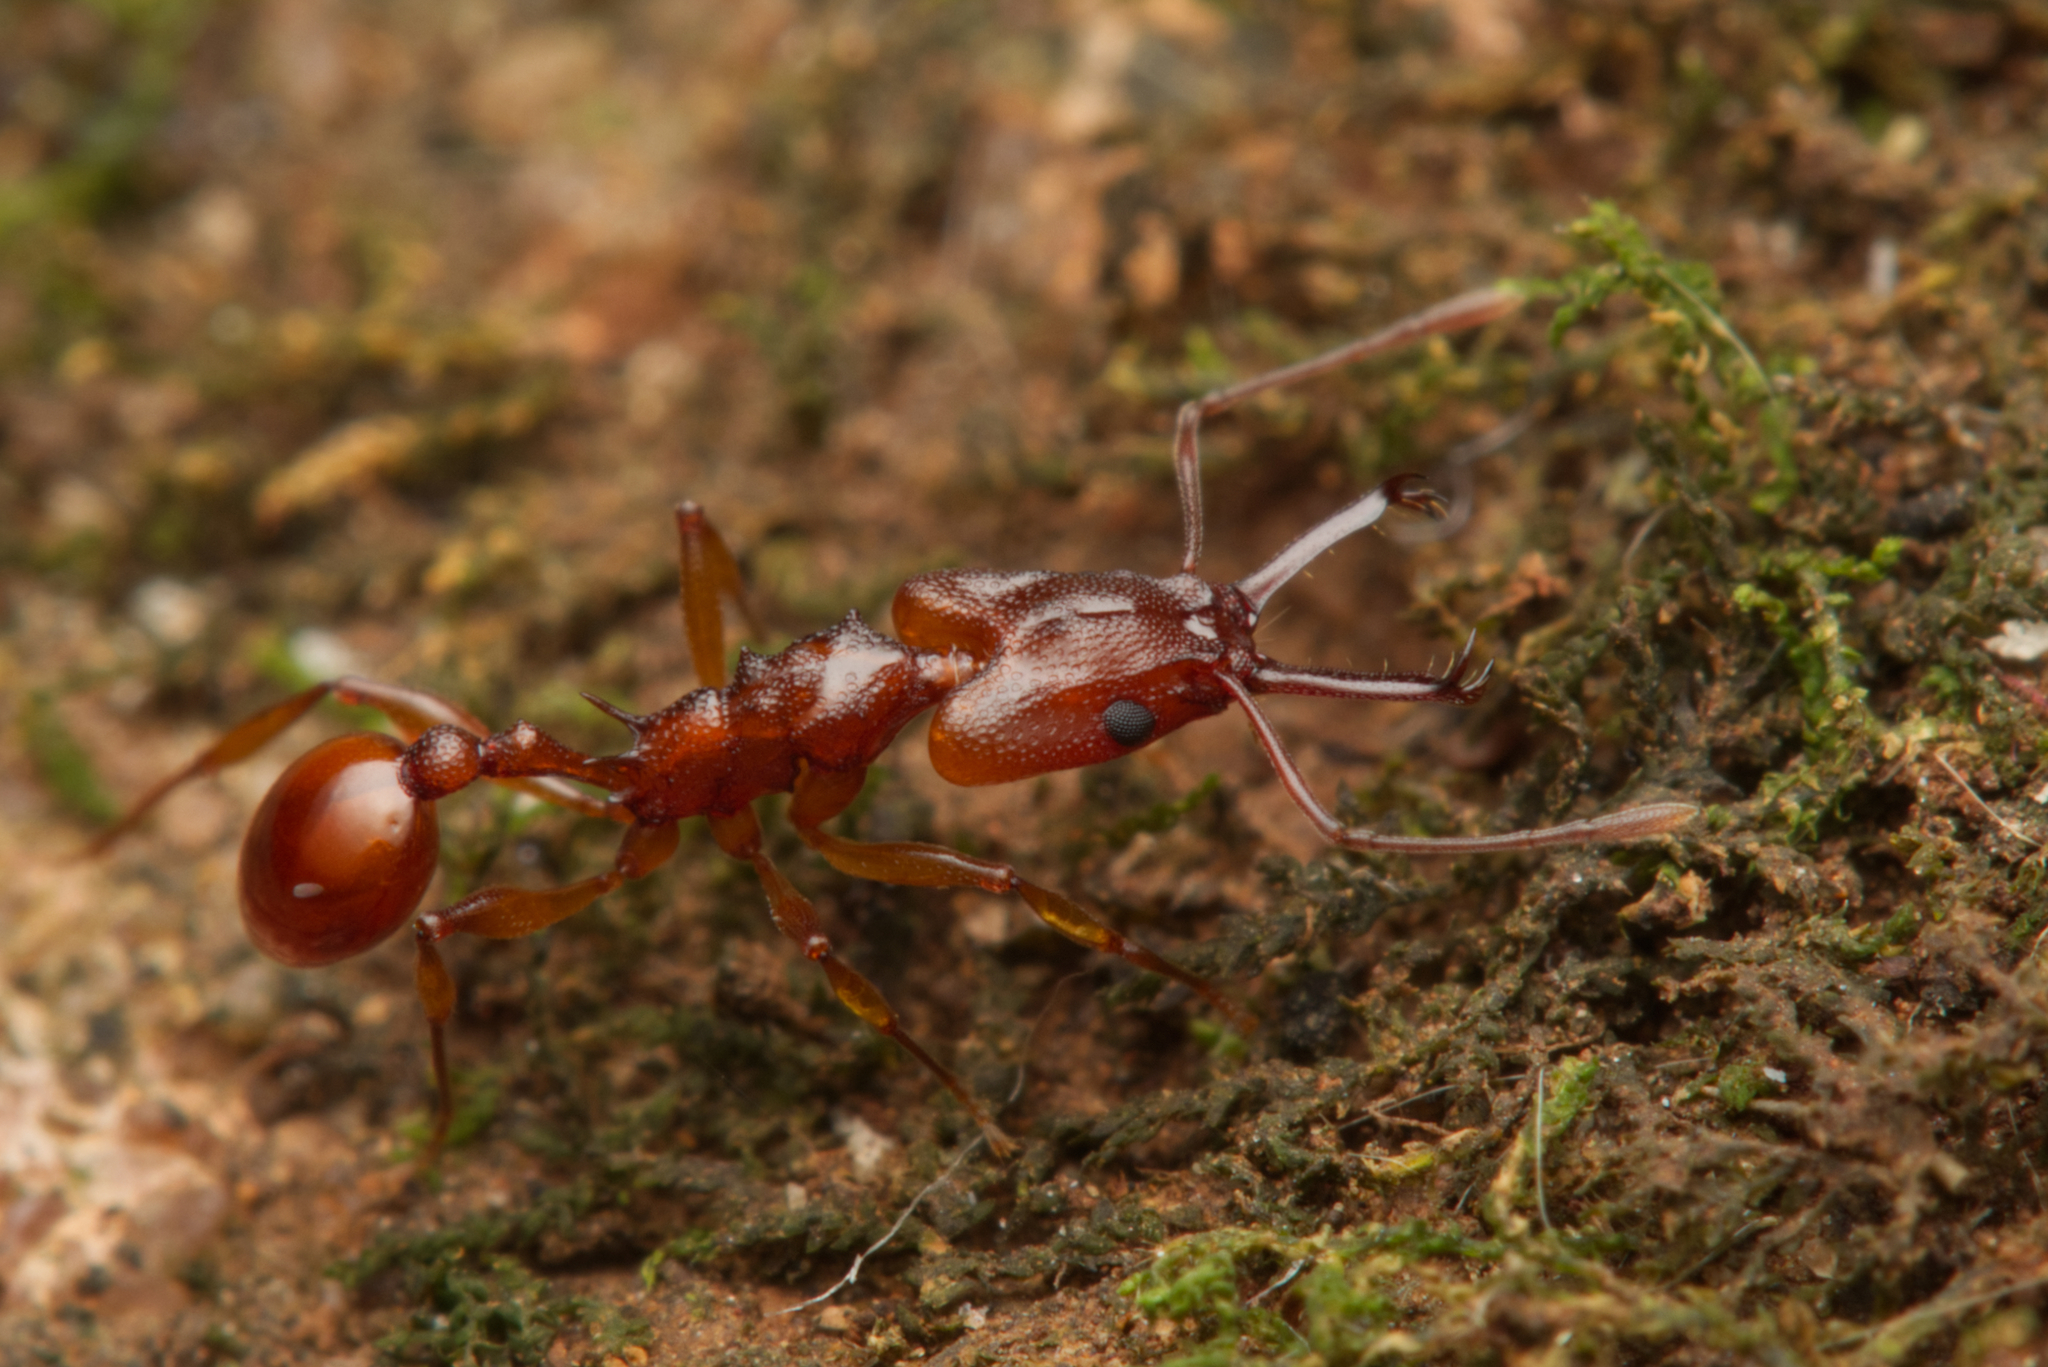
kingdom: Animalia
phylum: Arthropoda
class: Insecta
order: Hymenoptera
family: Formicidae
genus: Orectognathus
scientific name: Orectognathus antennatus
